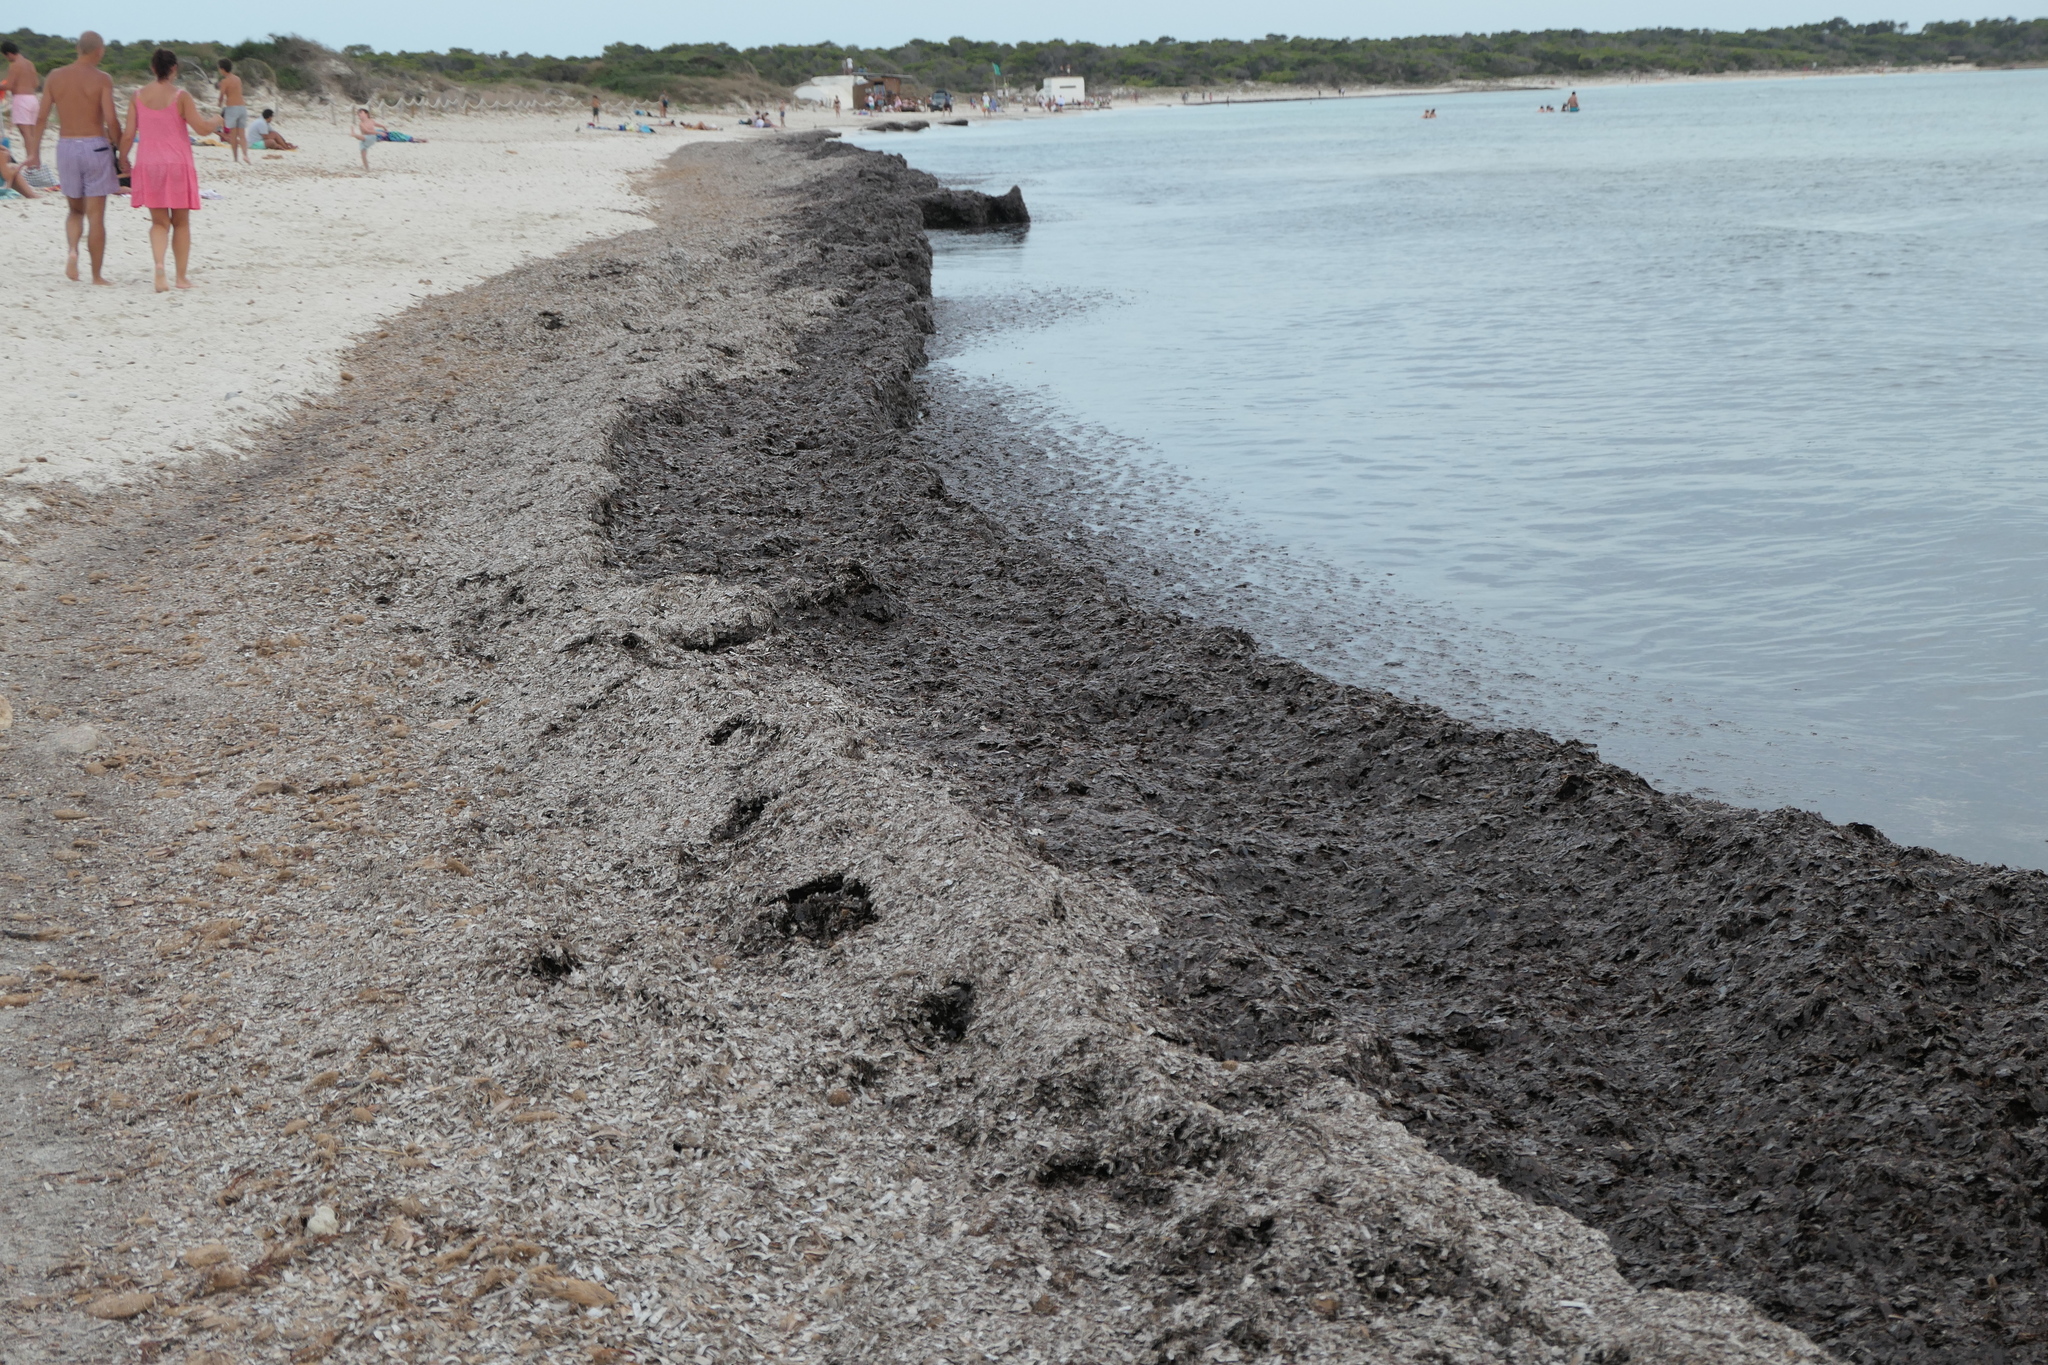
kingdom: Plantae
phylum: Tracheophyta
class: Liliopsida
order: Alismatales
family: Posidoniaceae
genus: Posidonia
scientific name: Posidonia oceanica
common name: Mediterranean tapeweed
